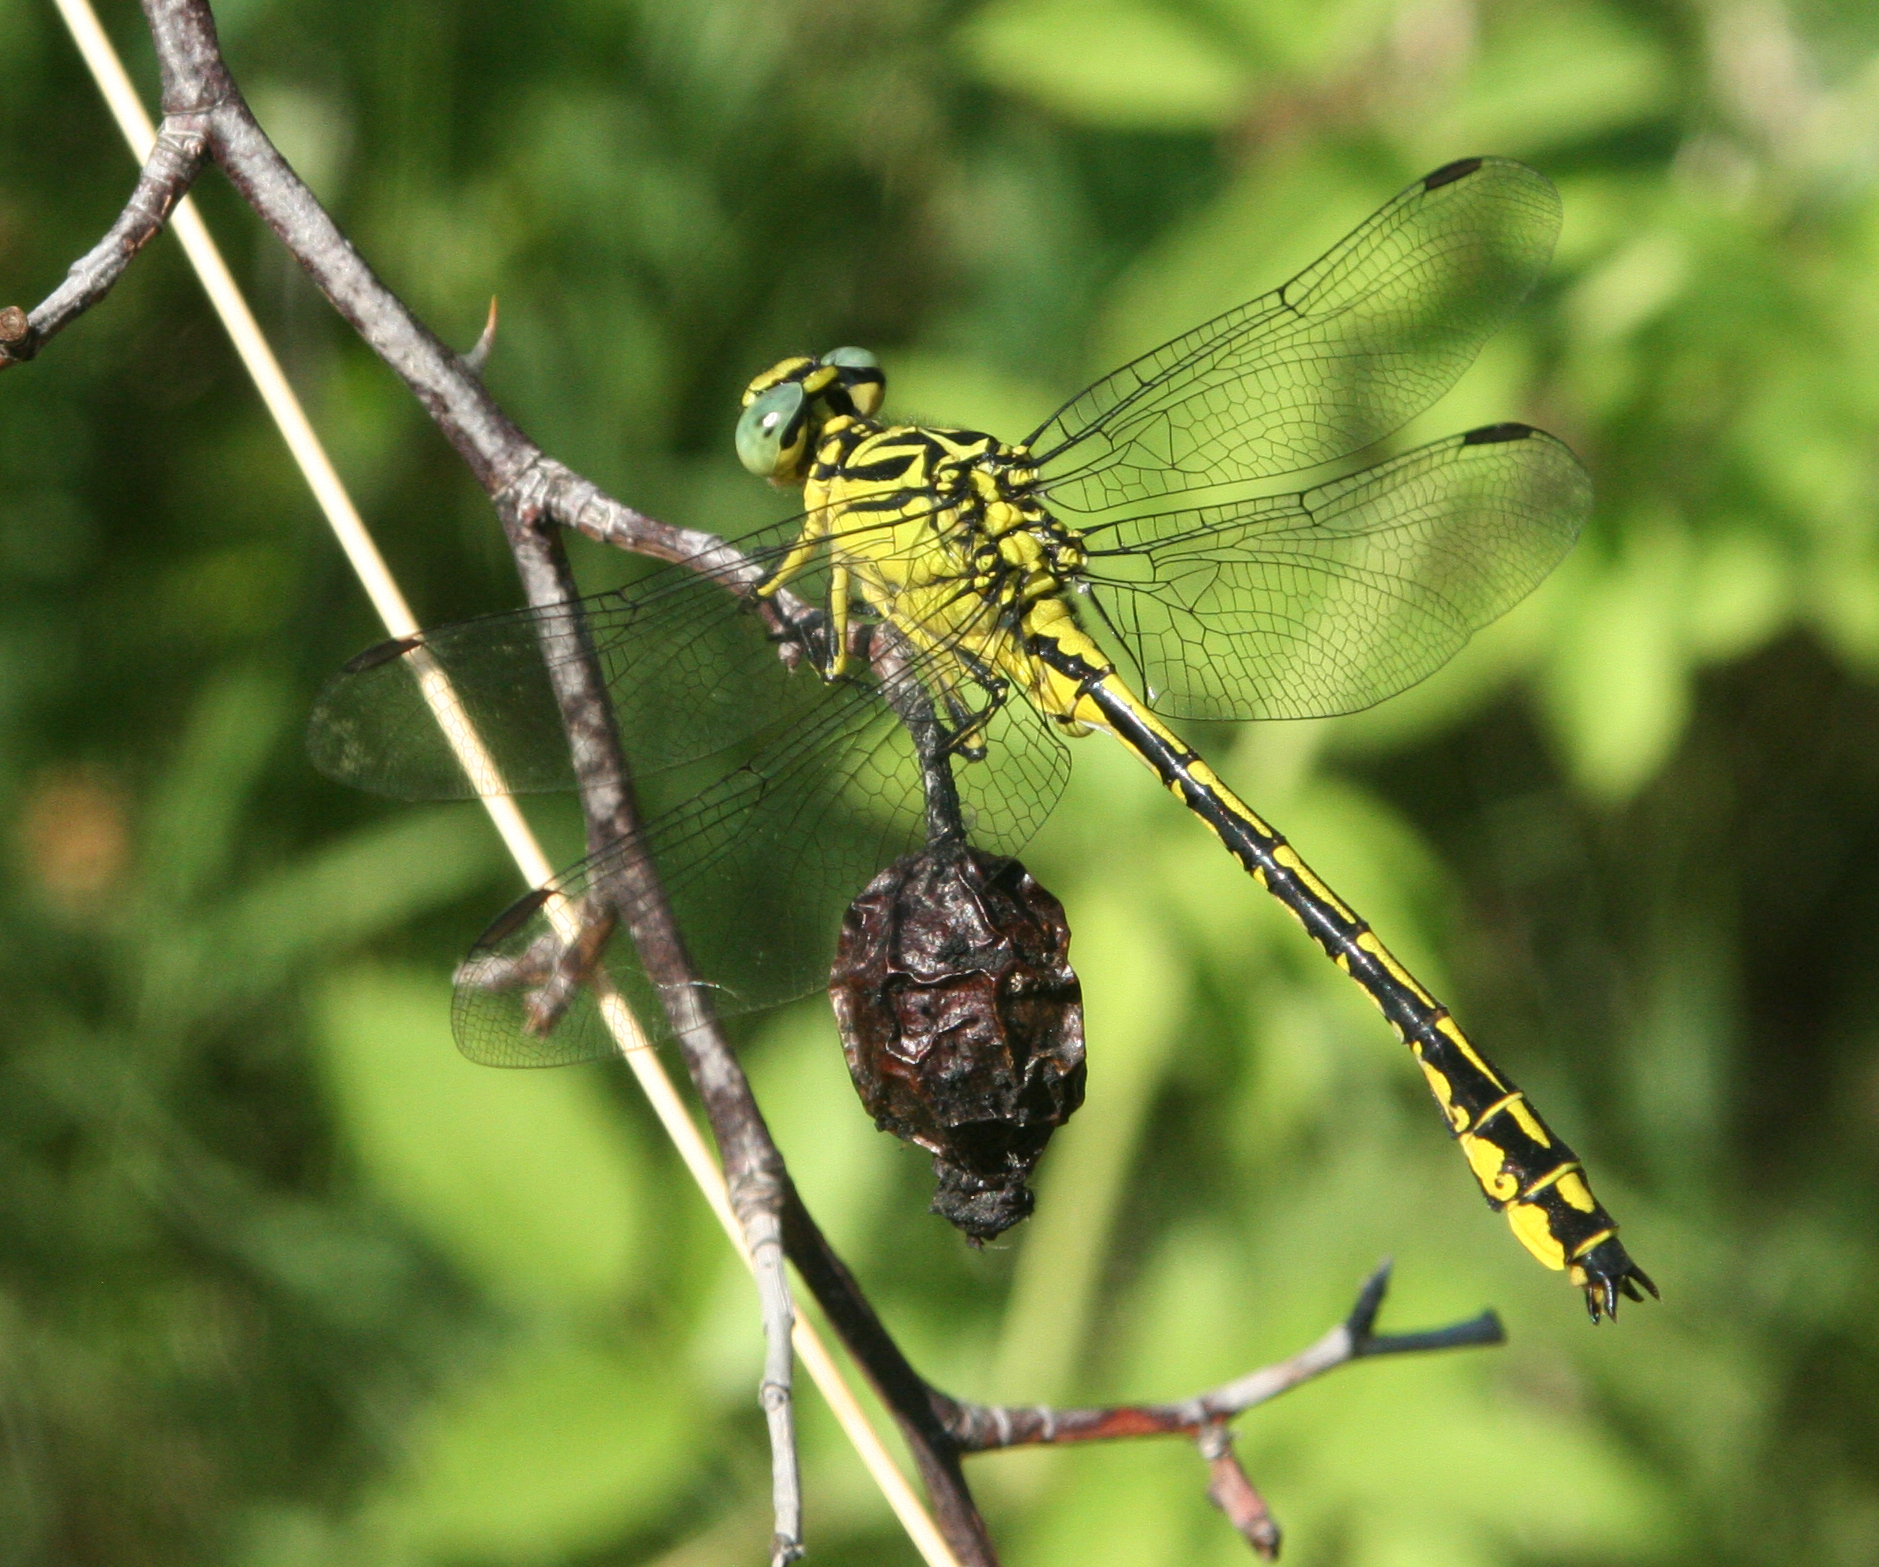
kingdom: Animalia
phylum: Arthropoda
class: Insecta
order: Odonata
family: Gomphidae
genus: Stylurus
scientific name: Stylurus flavipes
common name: River clubtail
